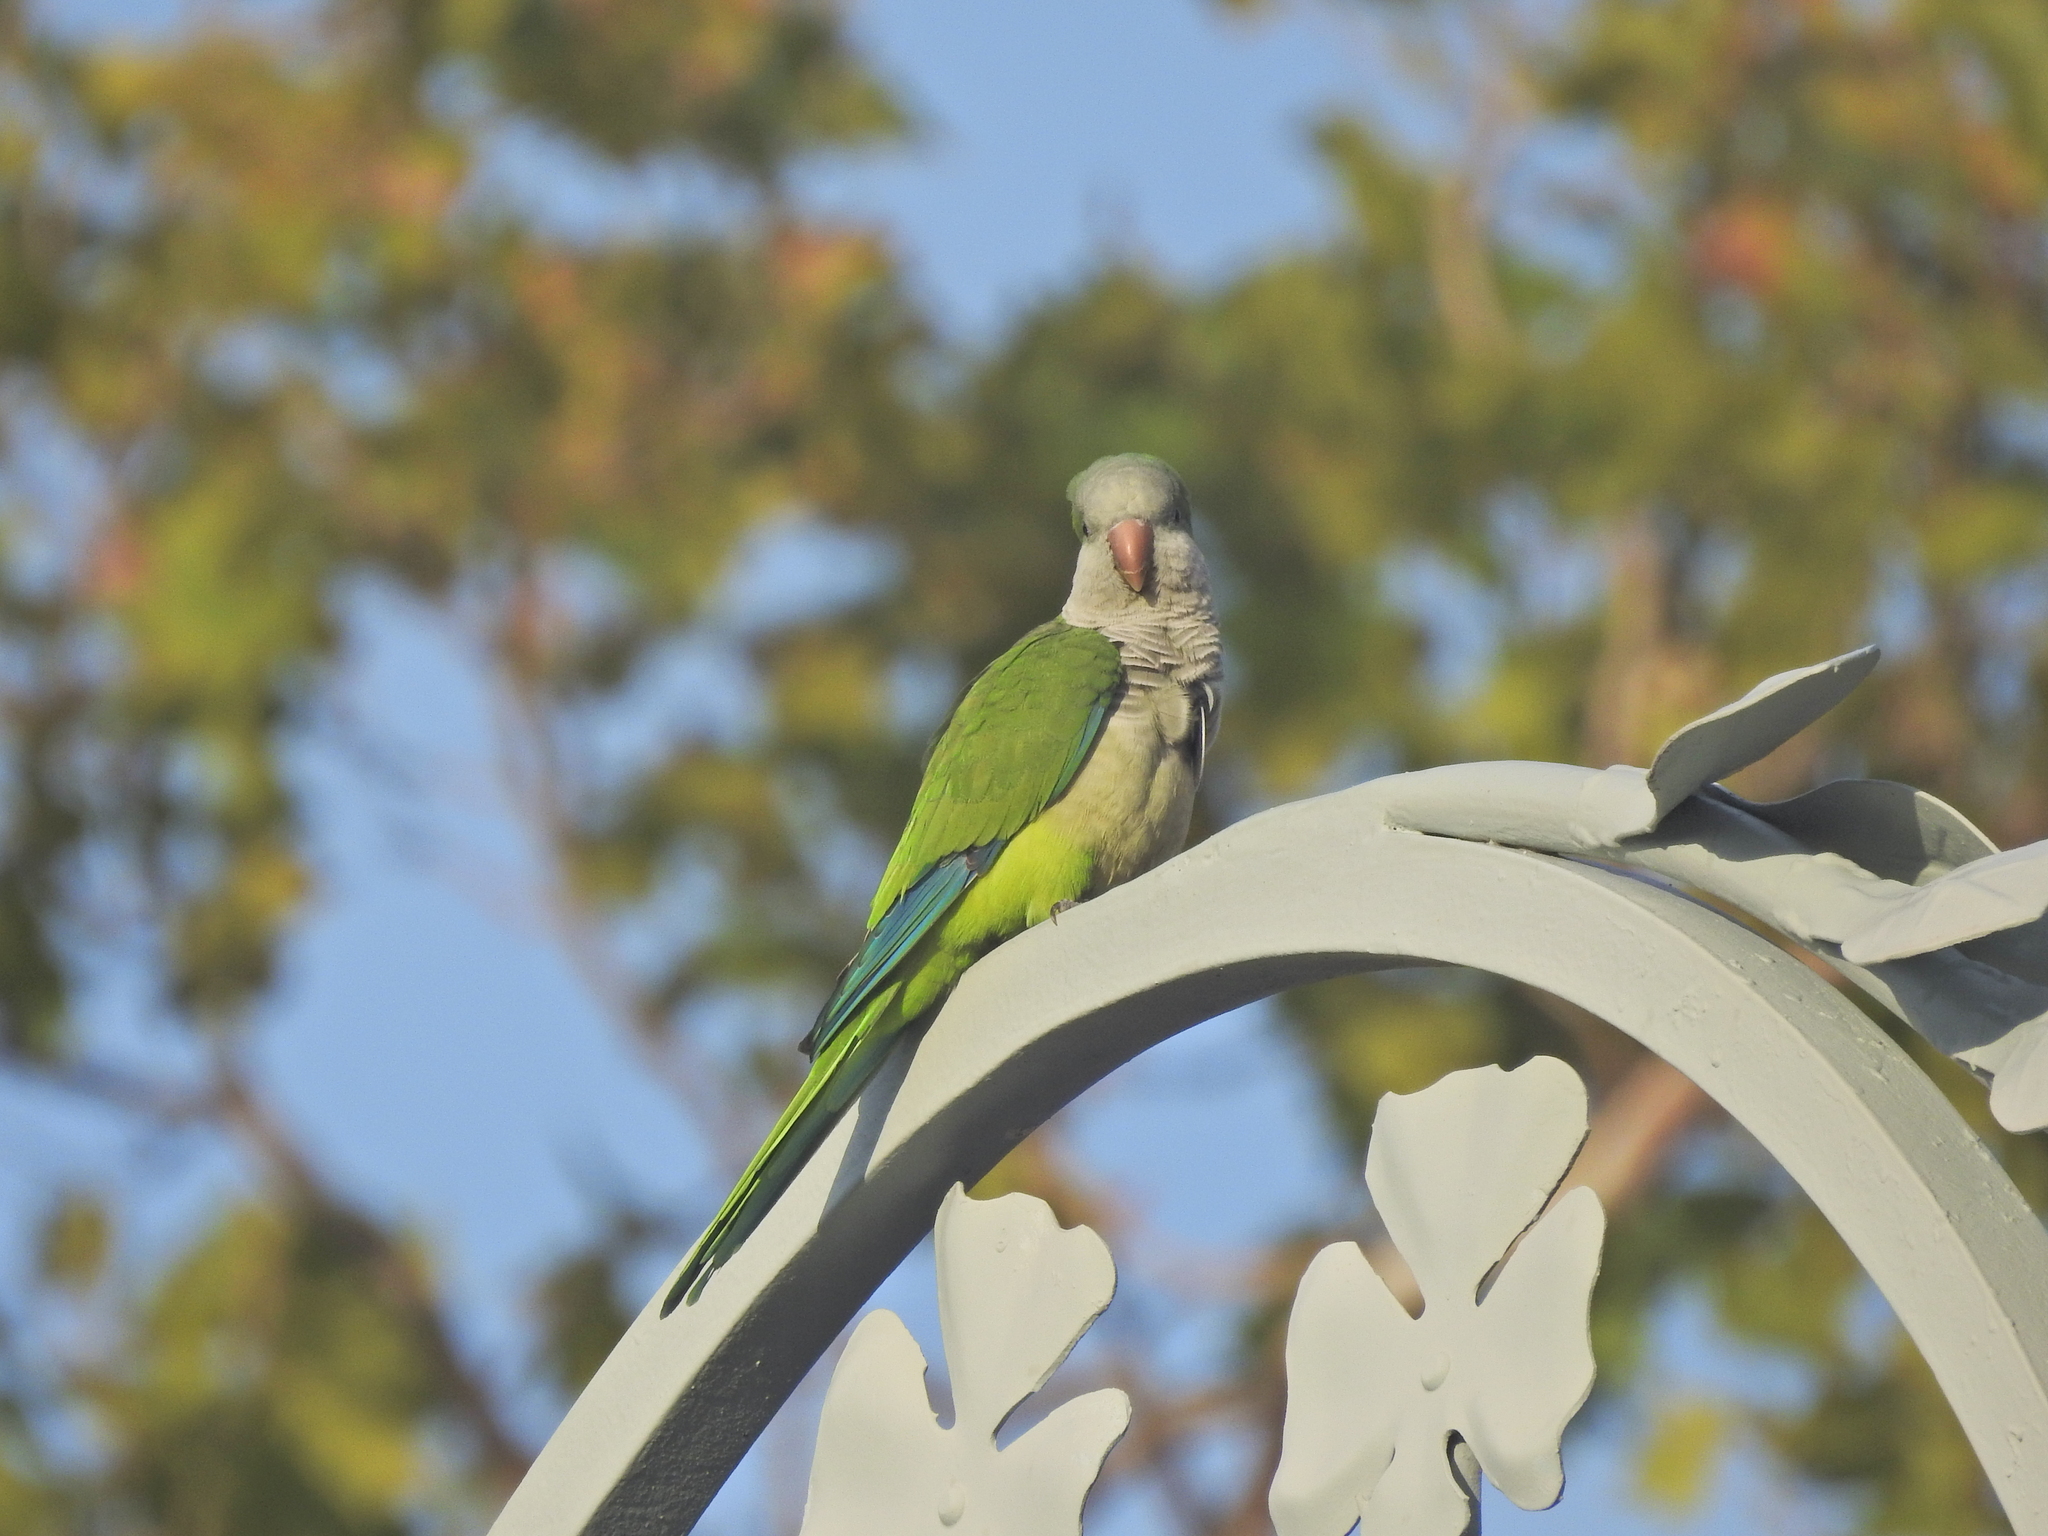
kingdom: Animalia
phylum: Chordata
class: Aves
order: Psittaciformes
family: Psittacidae
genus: Myiopsitta
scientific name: Myiopsitta monachus
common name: Monk parakeet
